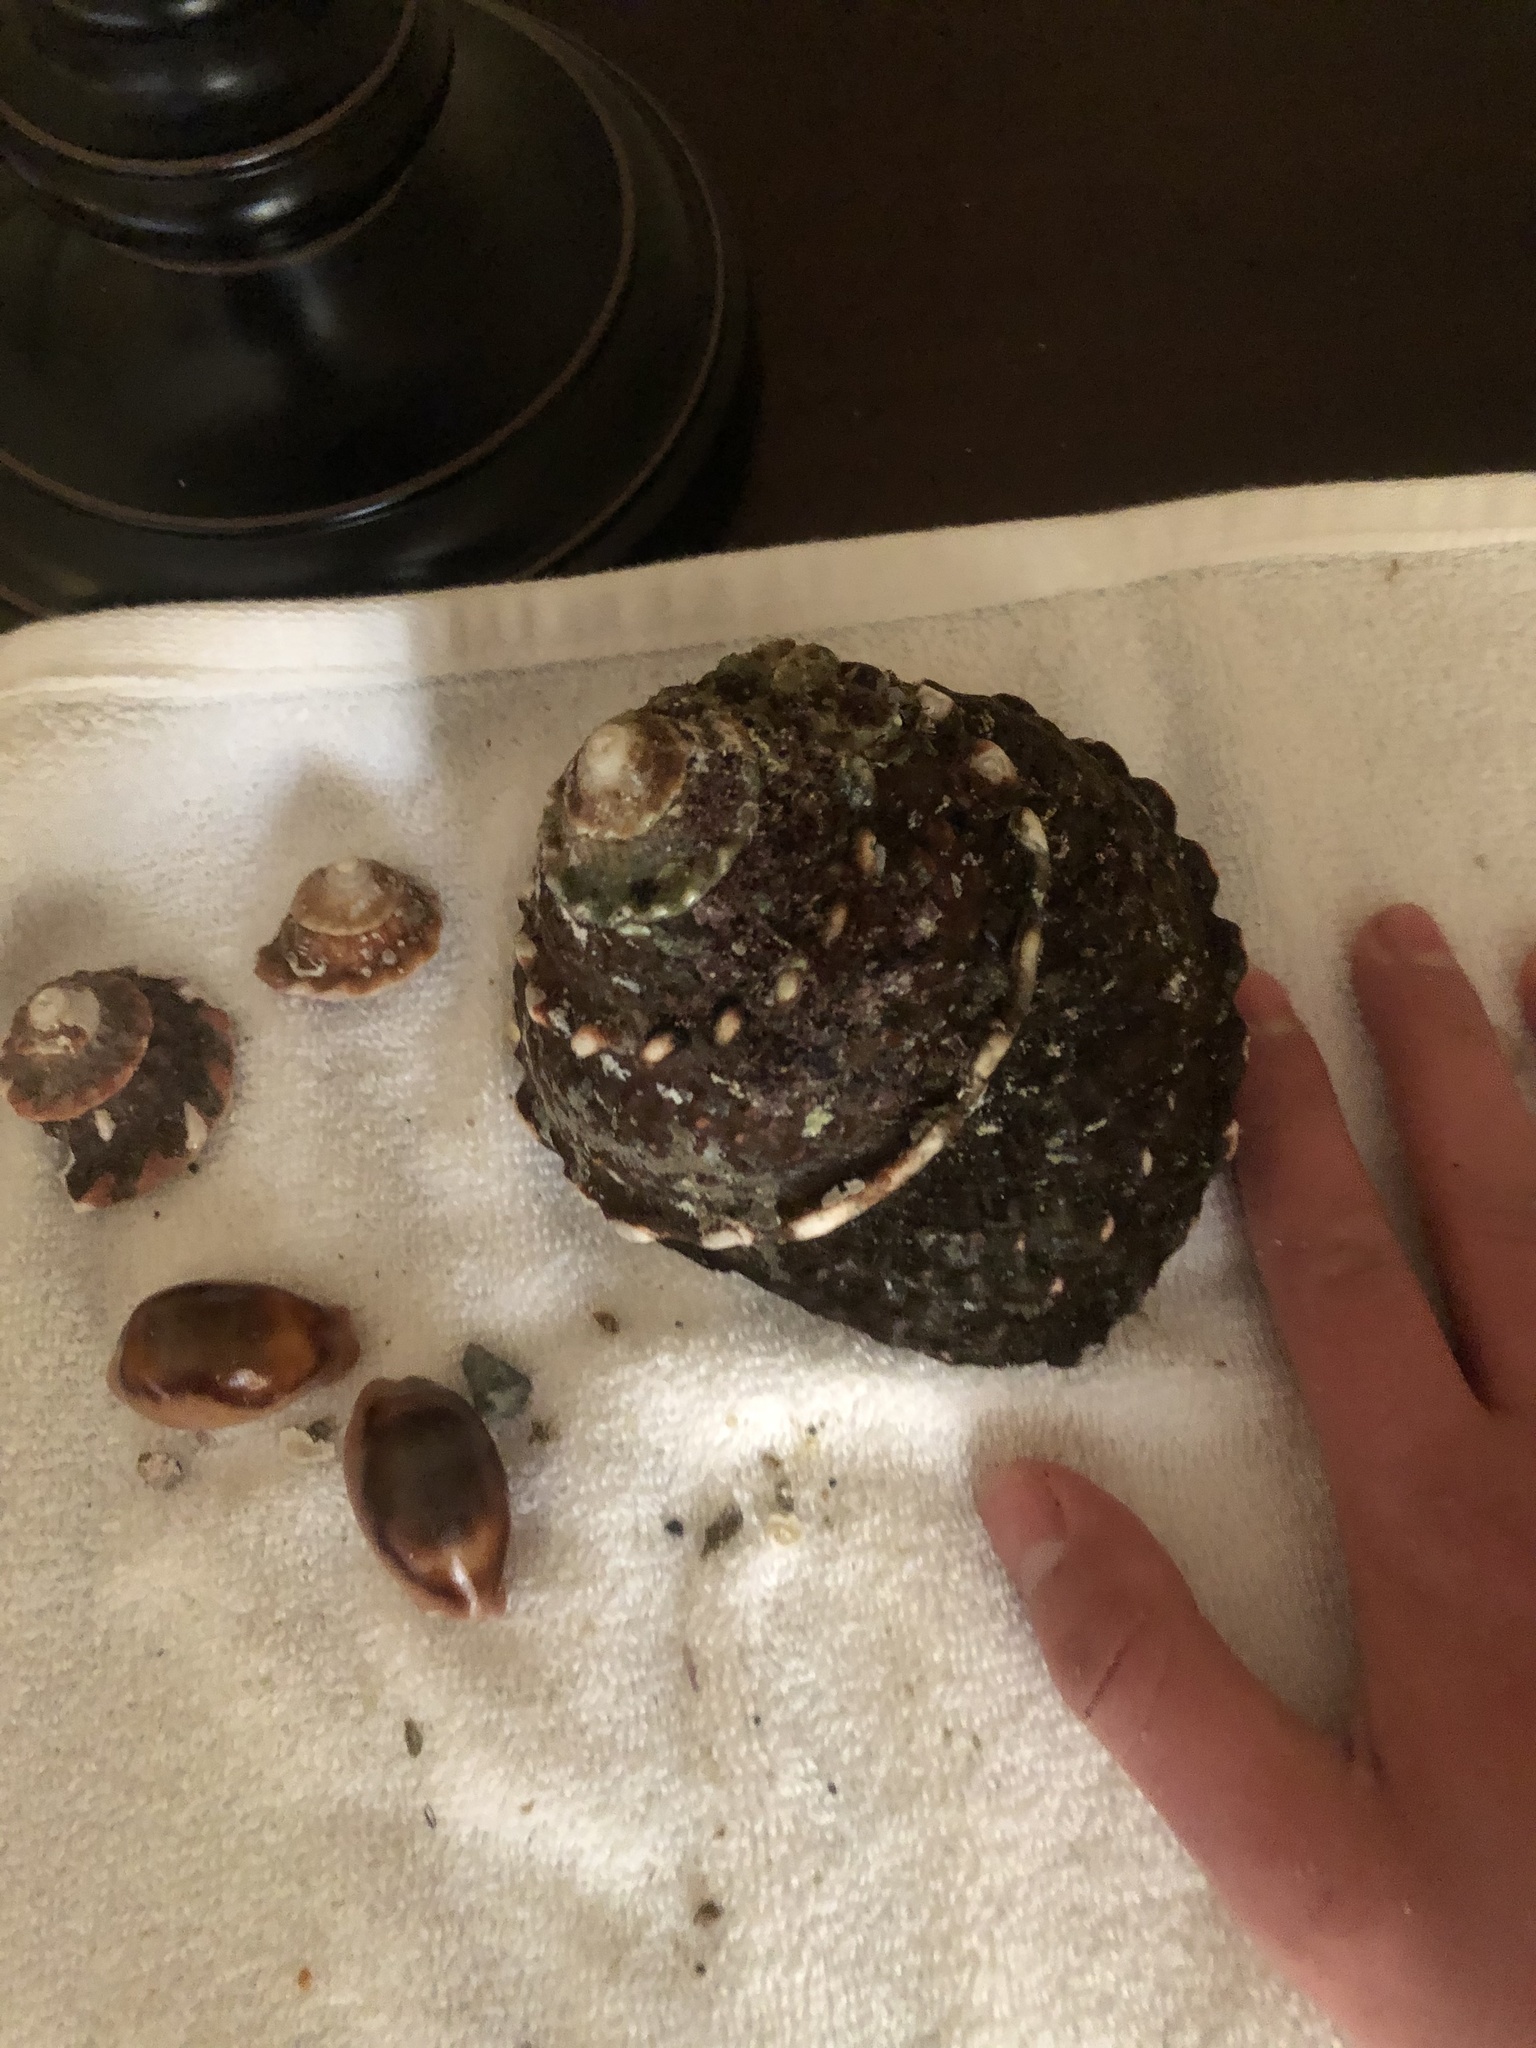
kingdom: Animalia
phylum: Mollusca
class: Gastropoda
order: Trochida
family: Turbinidae
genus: Megastraea
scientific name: Megastraea undosa
